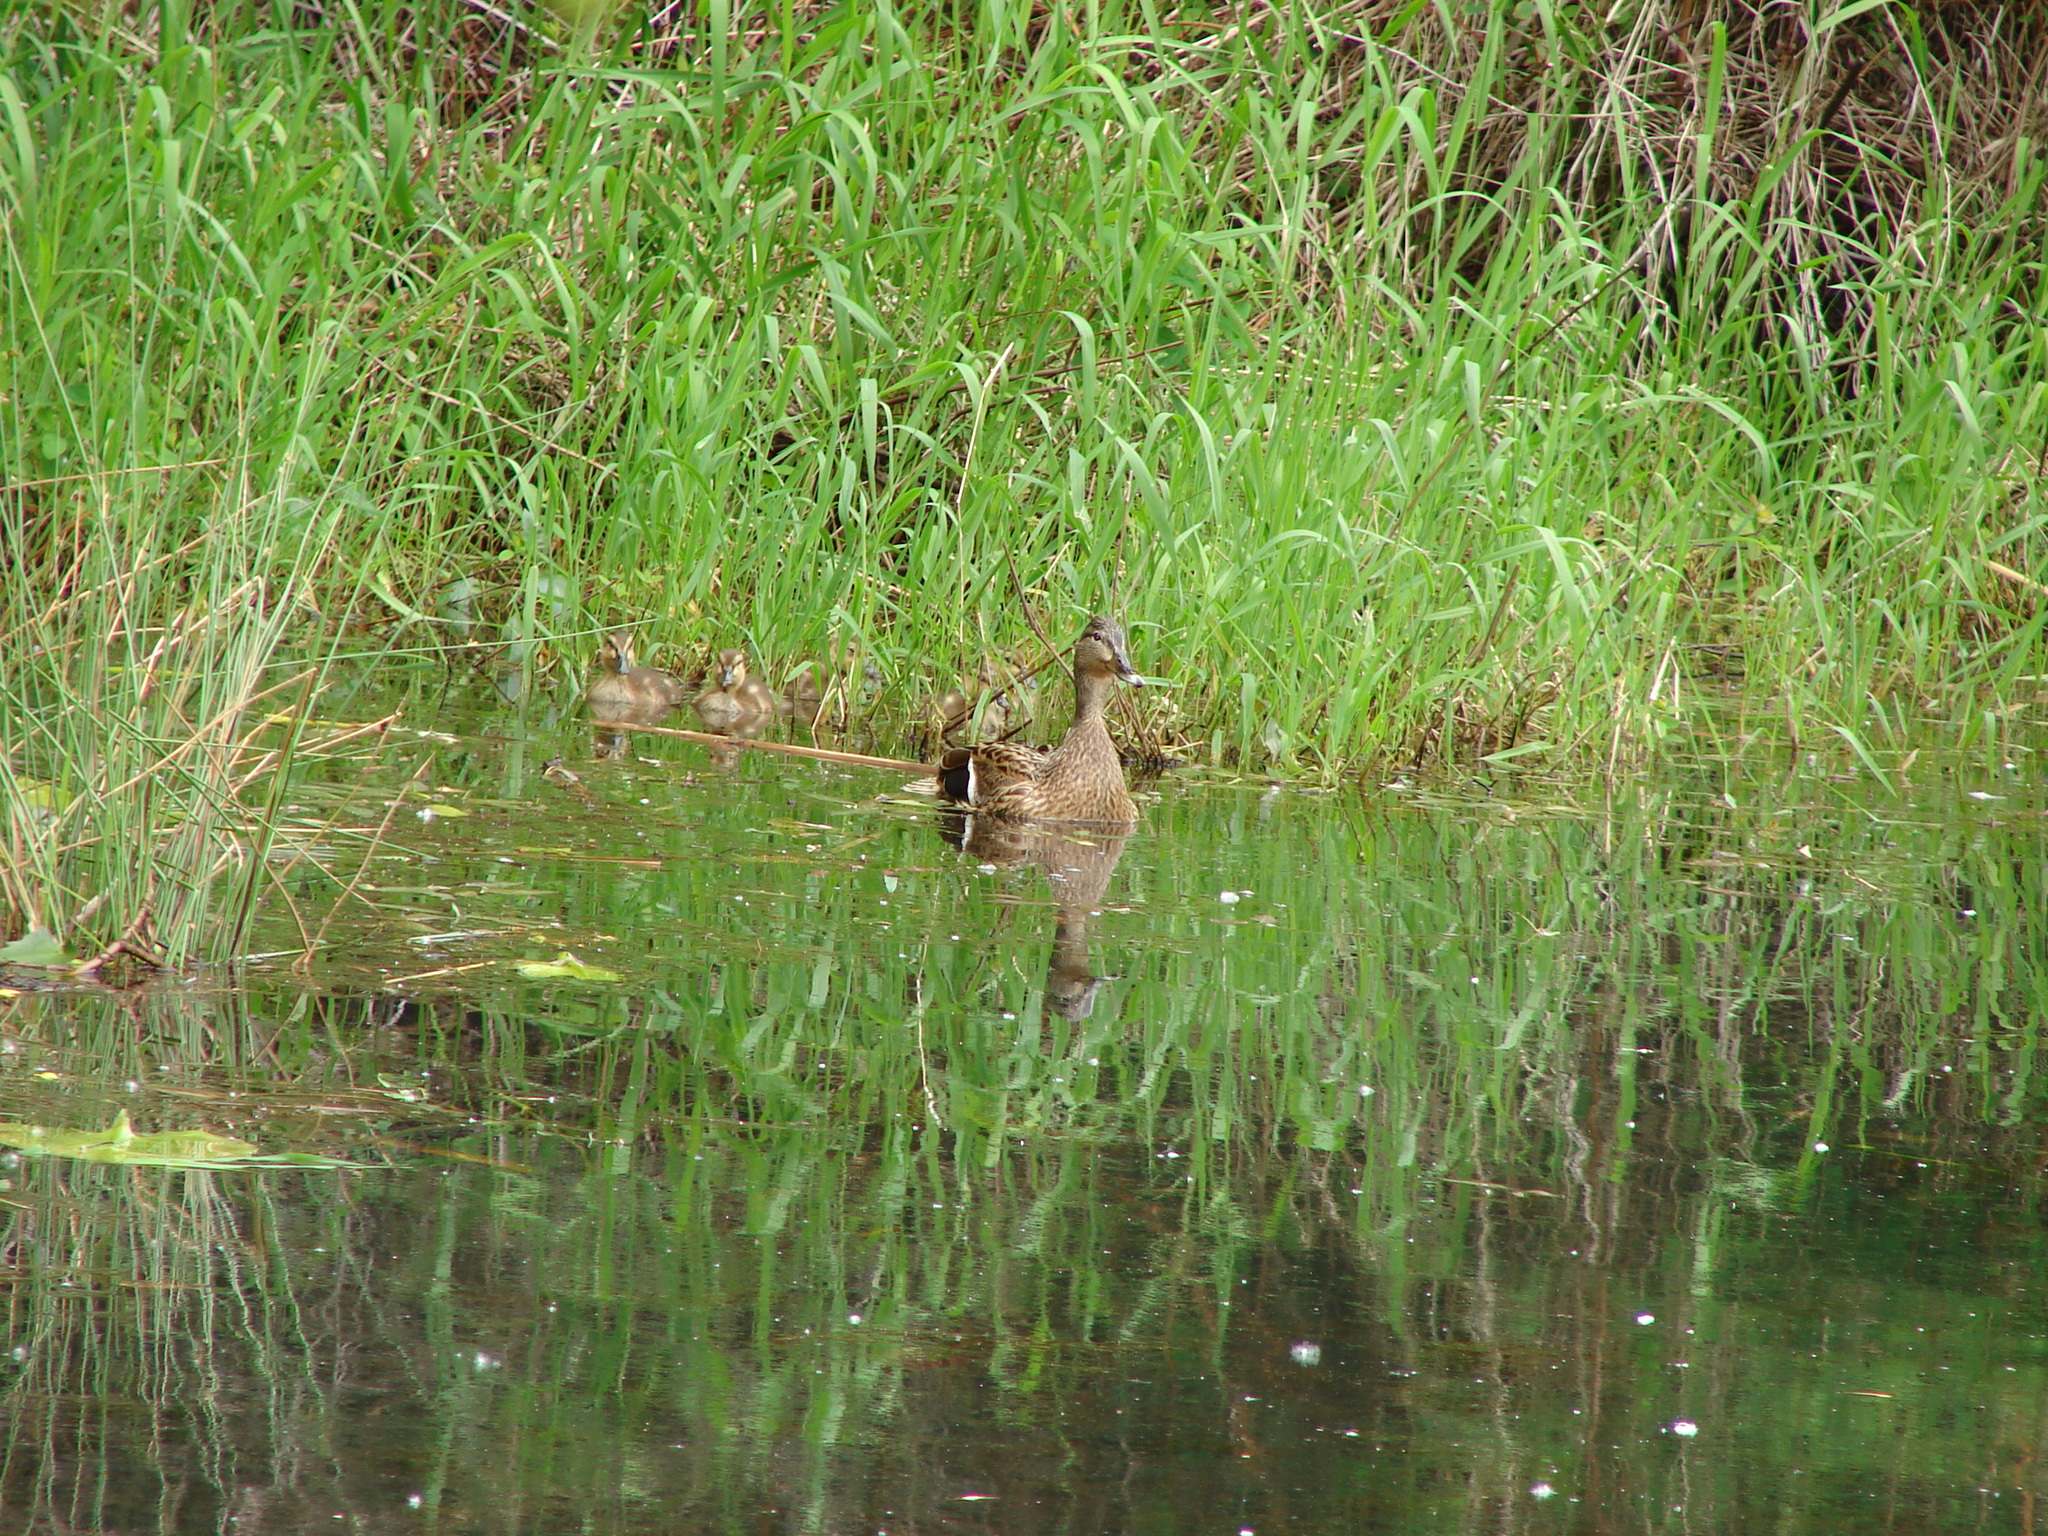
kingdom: Animalia
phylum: Chordata
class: Aves
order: Anseriformes
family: Anatidae
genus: Anas
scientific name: Anas platyrhynchos
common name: Mallard
